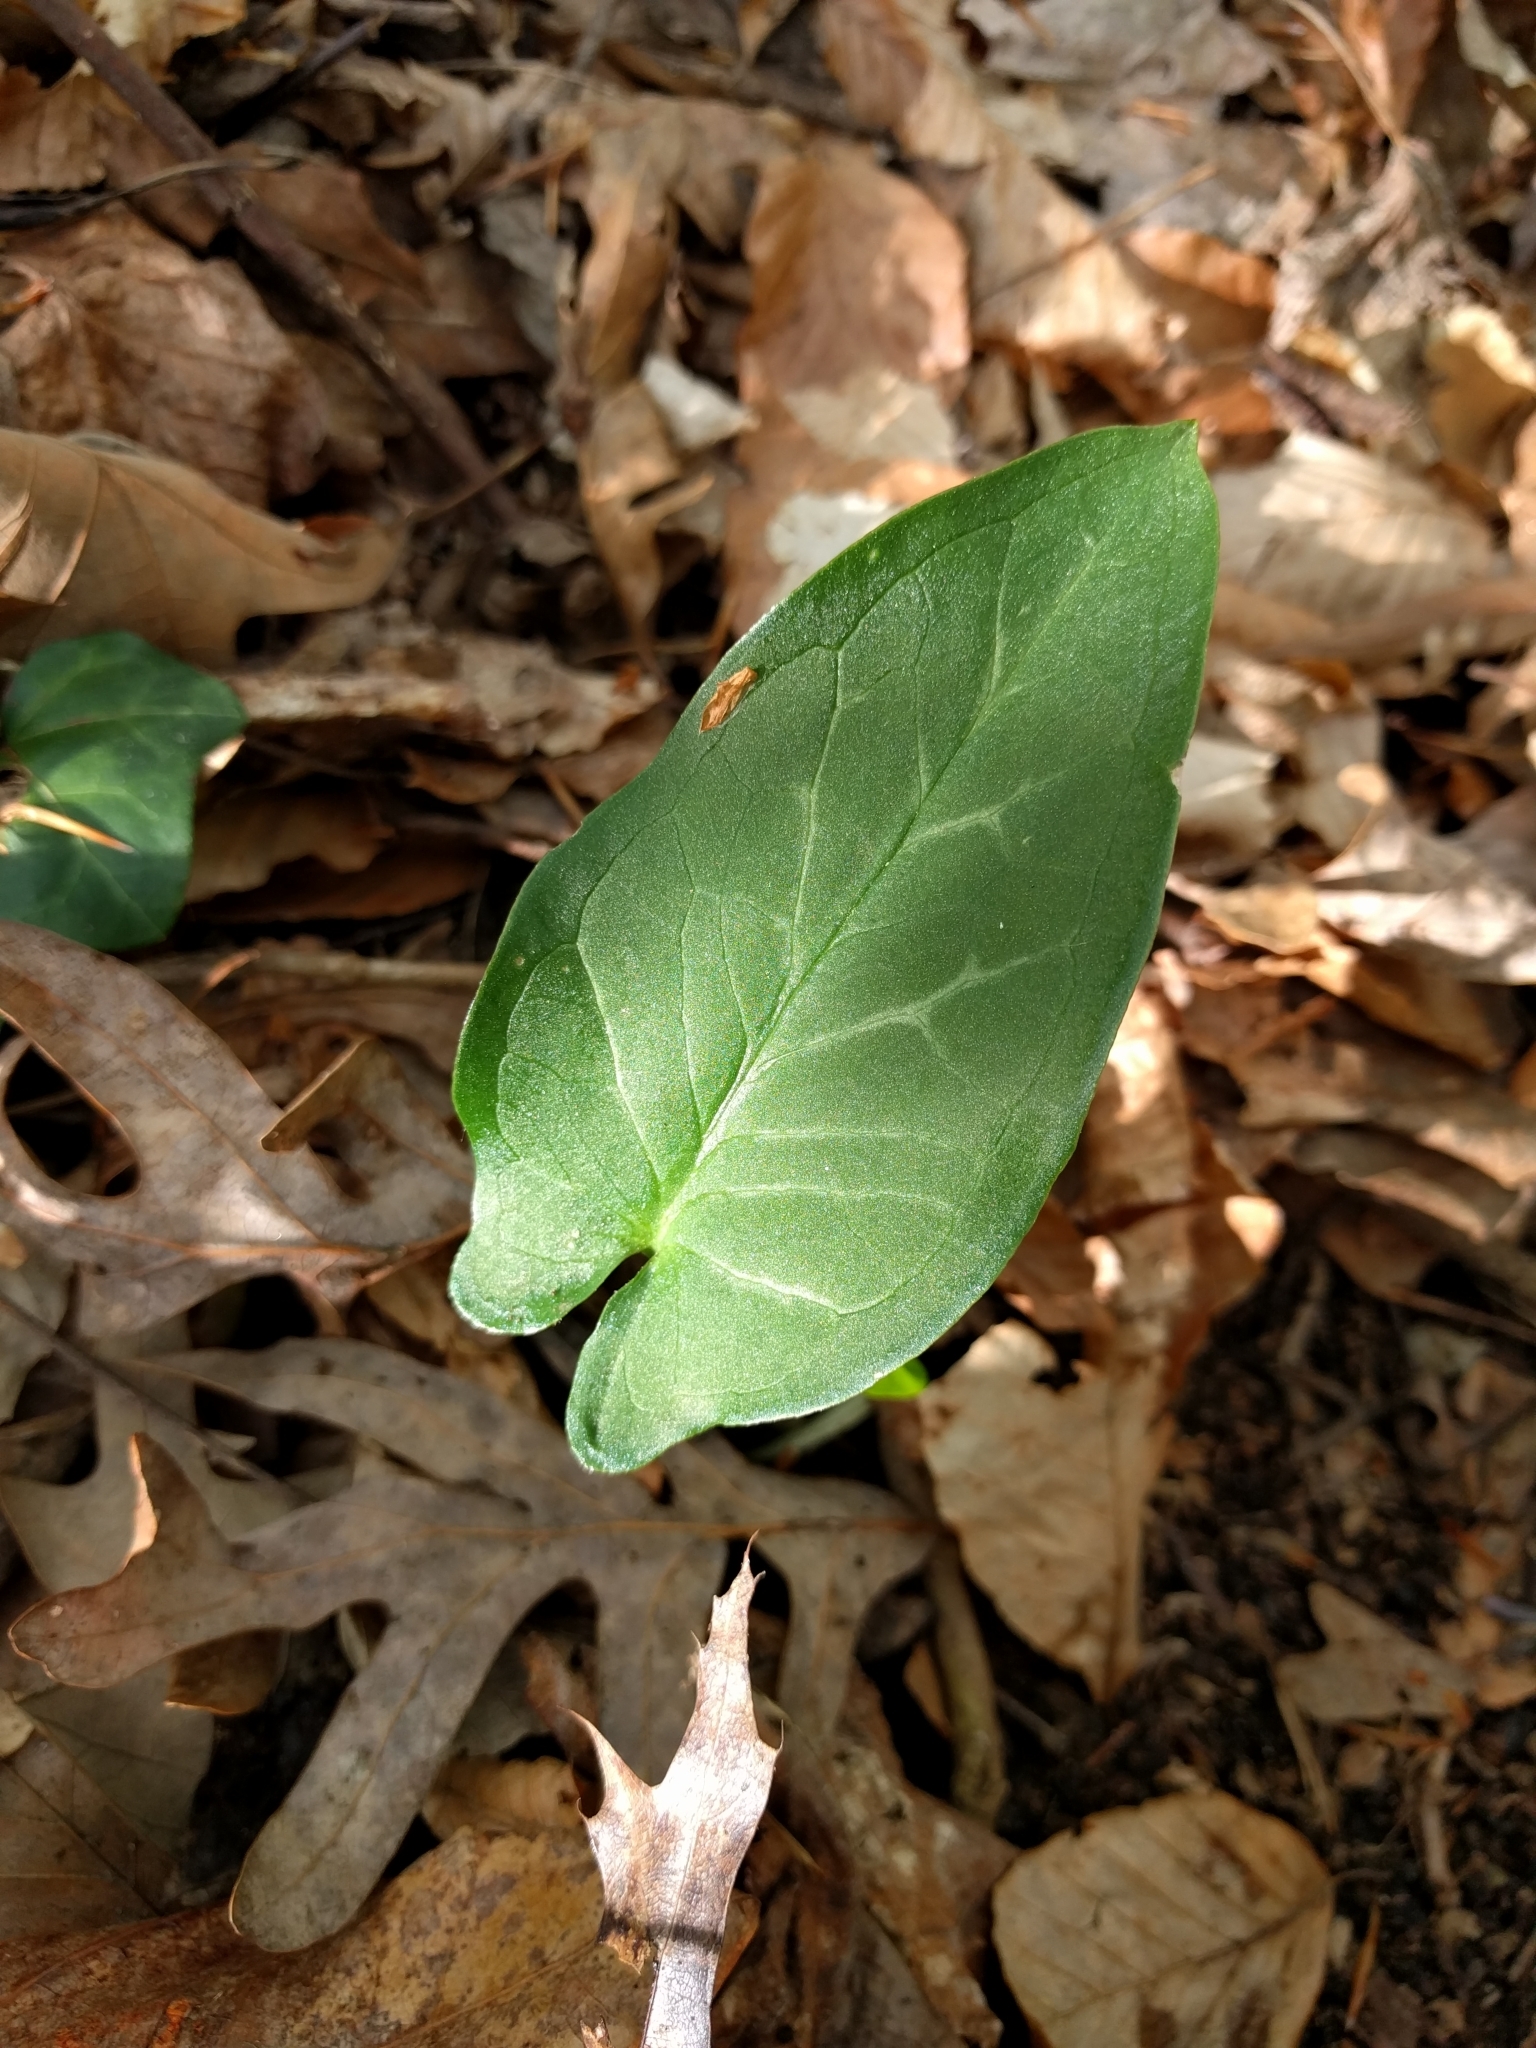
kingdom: Plantae
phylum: Tracheophyta
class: Liliopsida
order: Alismatales
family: Araceae
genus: Arum
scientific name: Arum italicum
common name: Italian lords-and-ladies
